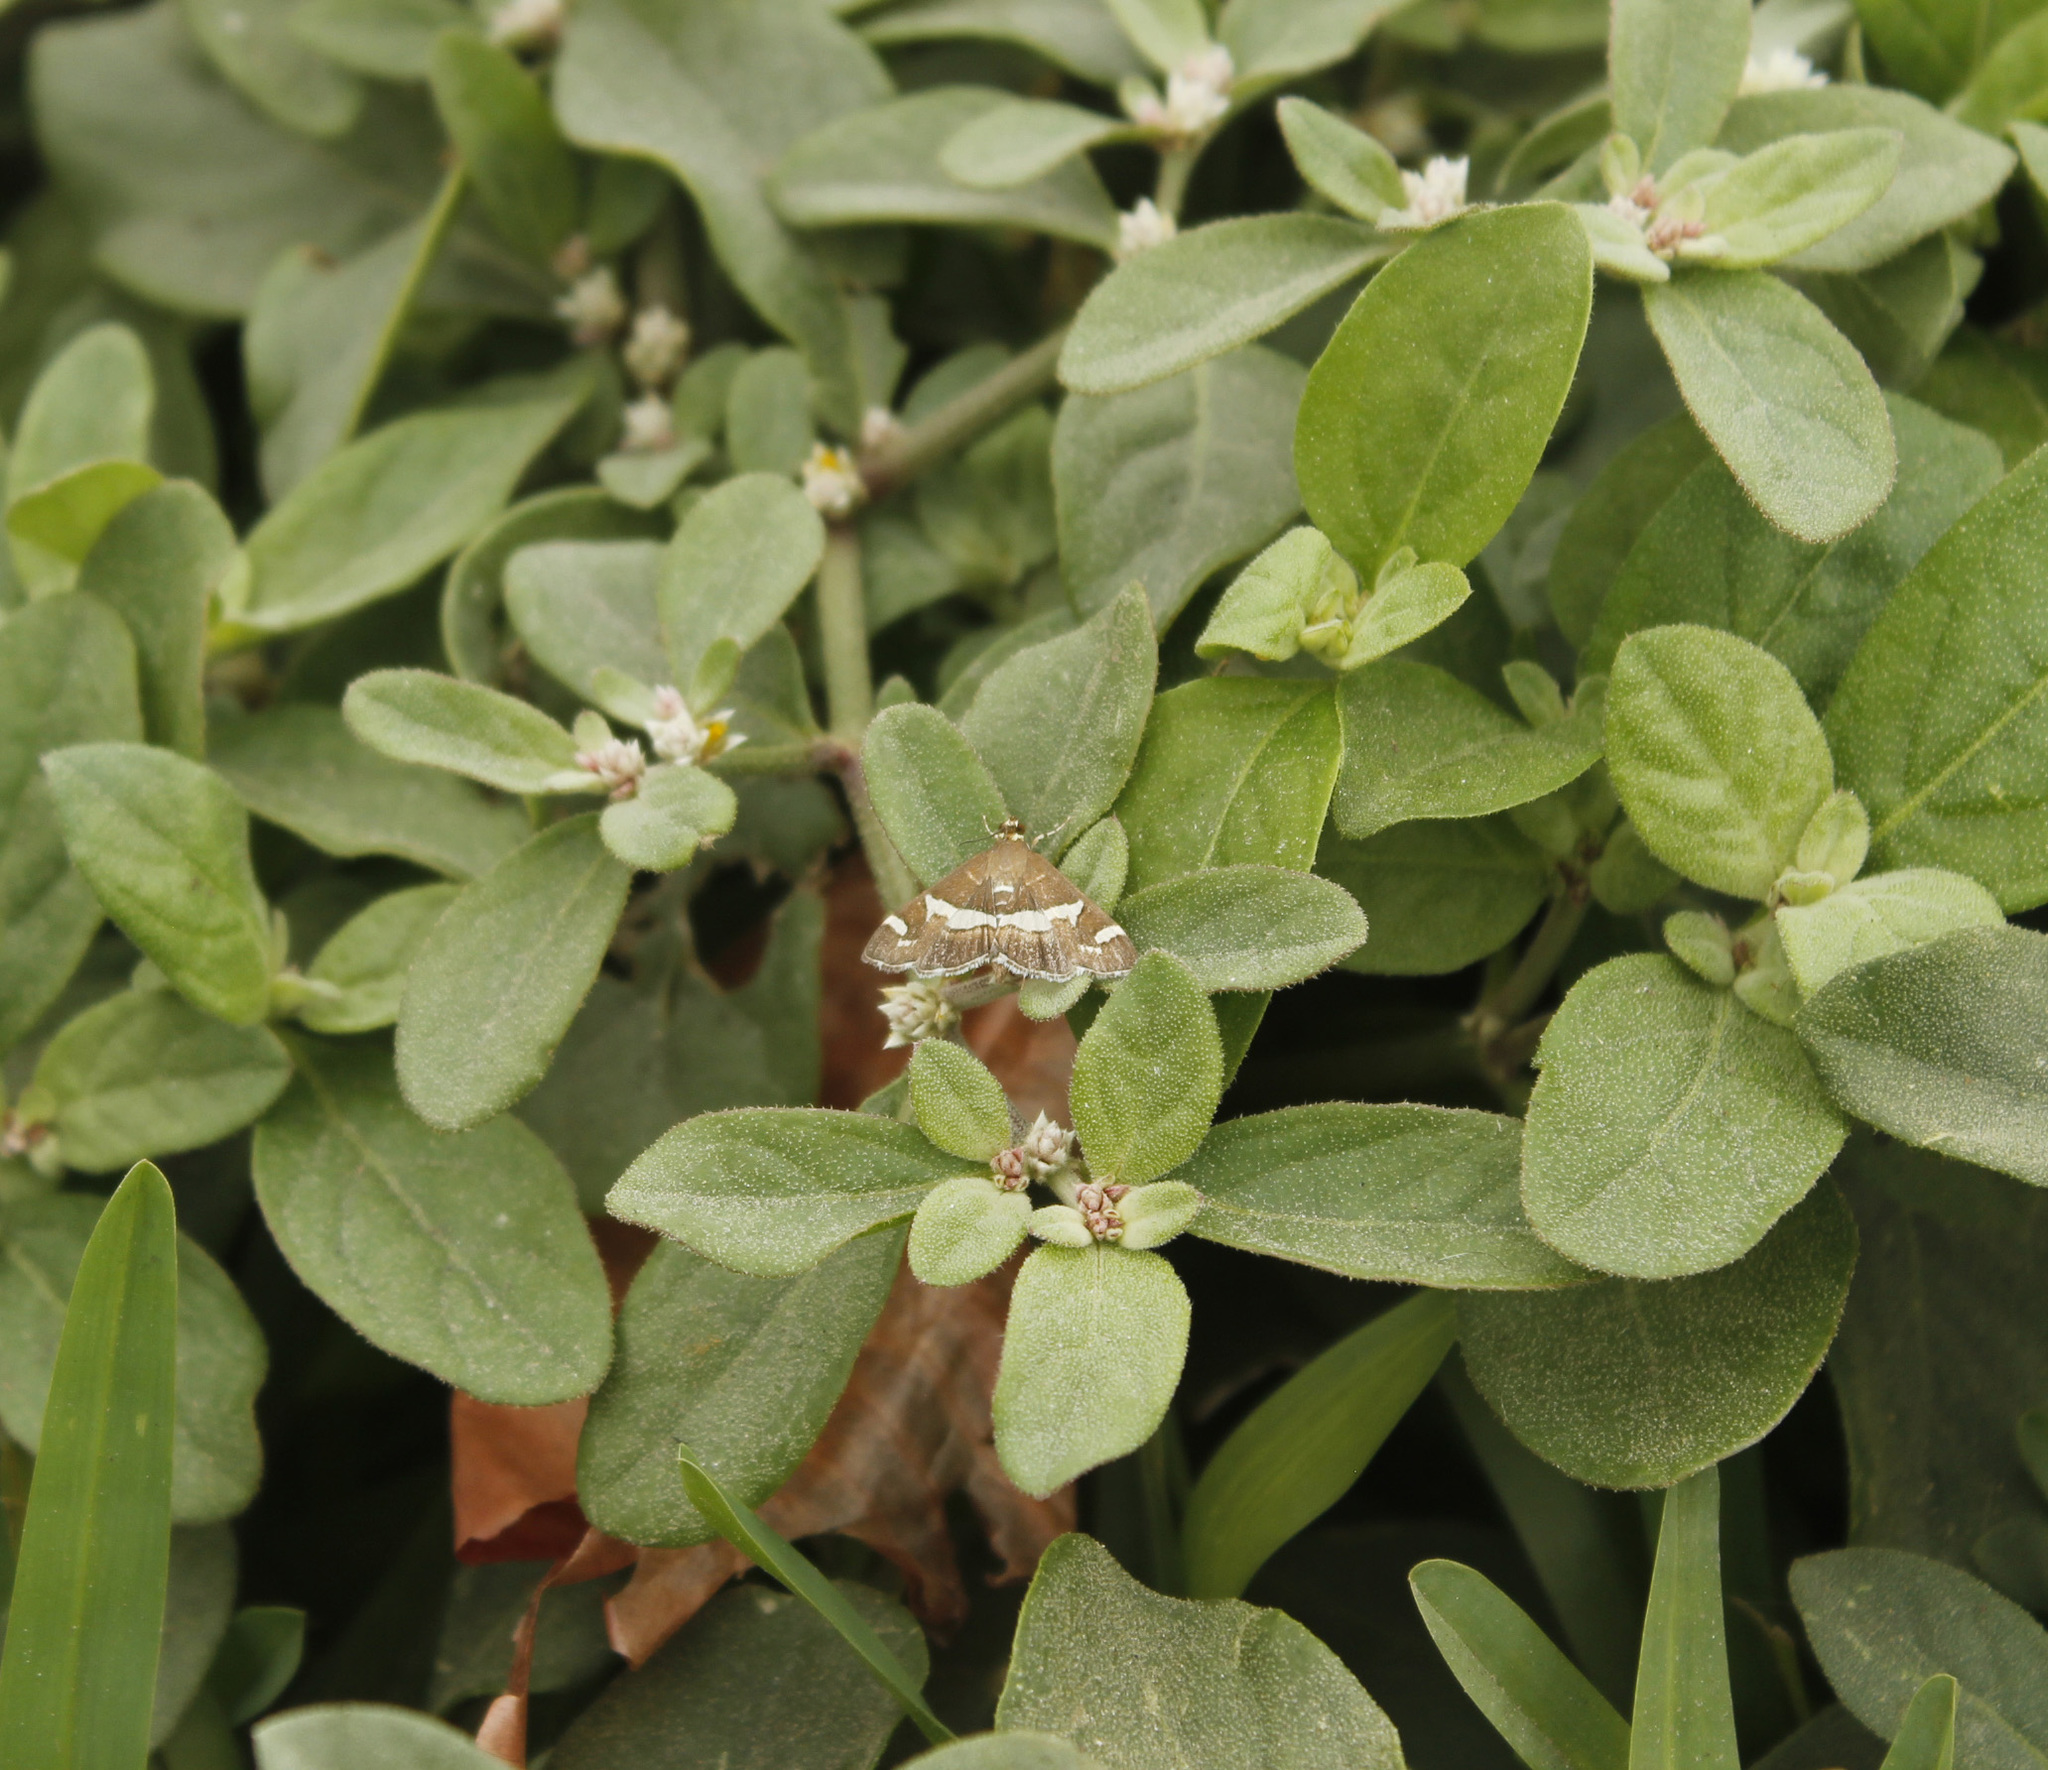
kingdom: Animalia
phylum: Arthropoda
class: Insecta
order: Lepidoptera
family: Crambidae
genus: Spoladea
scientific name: Spoladea recurvalis
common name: Beet webworm moth
